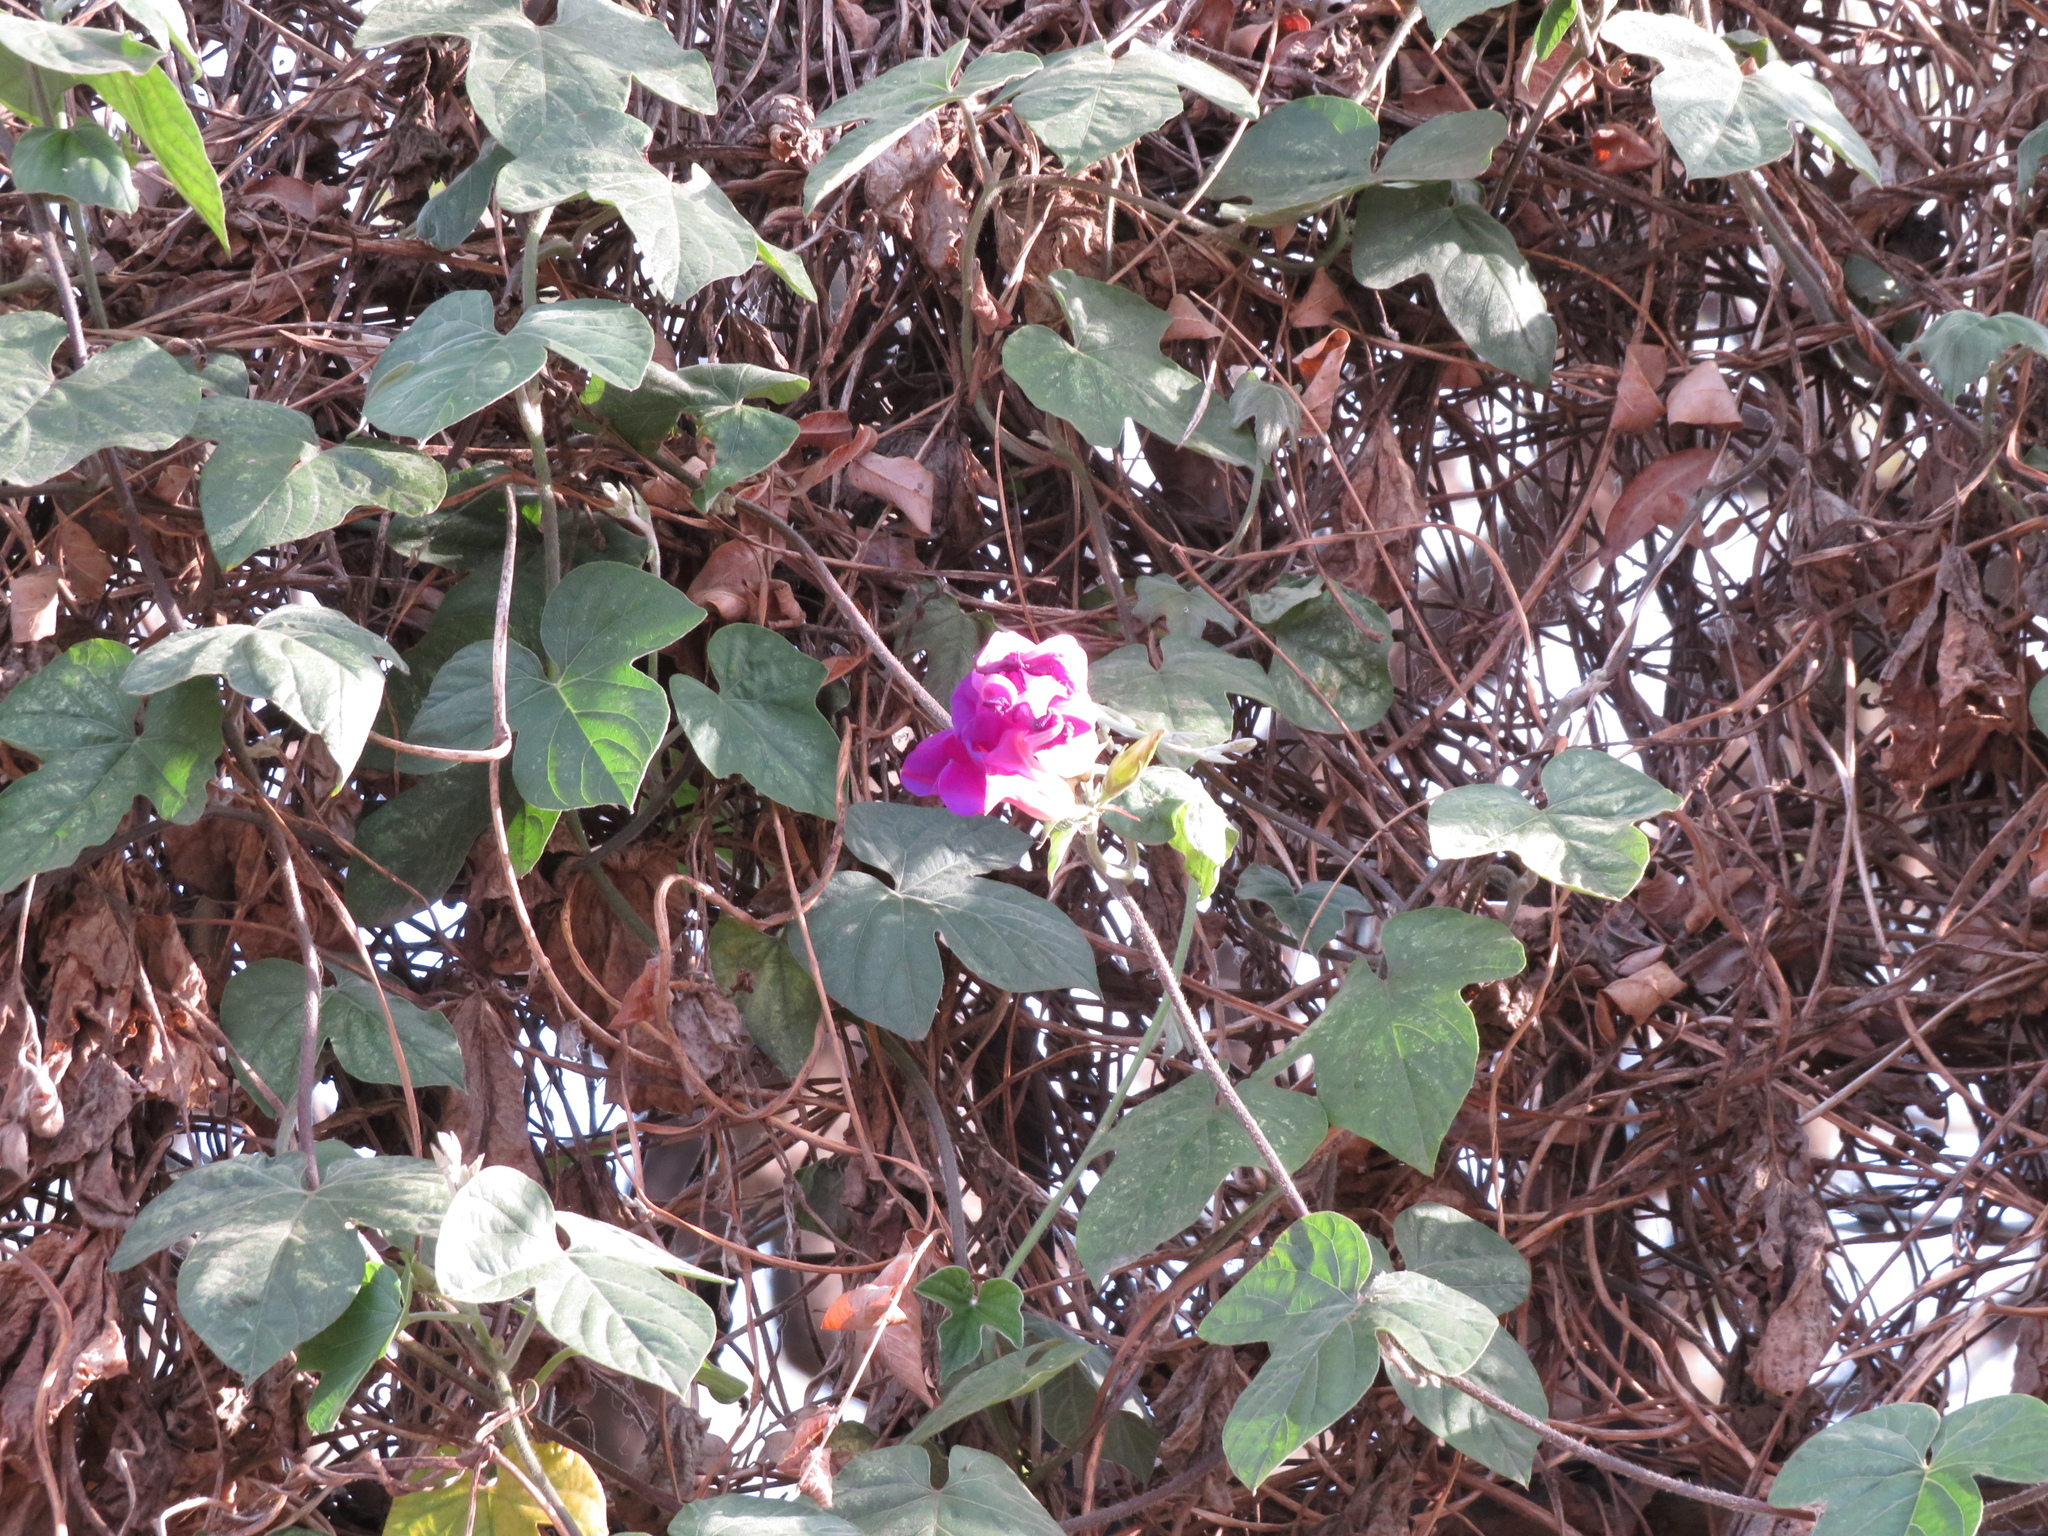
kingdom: Plantae
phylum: Tracheophyta
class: Magnoliopsida
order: Solanales
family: Convolvulaceae
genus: Ipomoea
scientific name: Ipomoea indica
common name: Blue dawnflower
